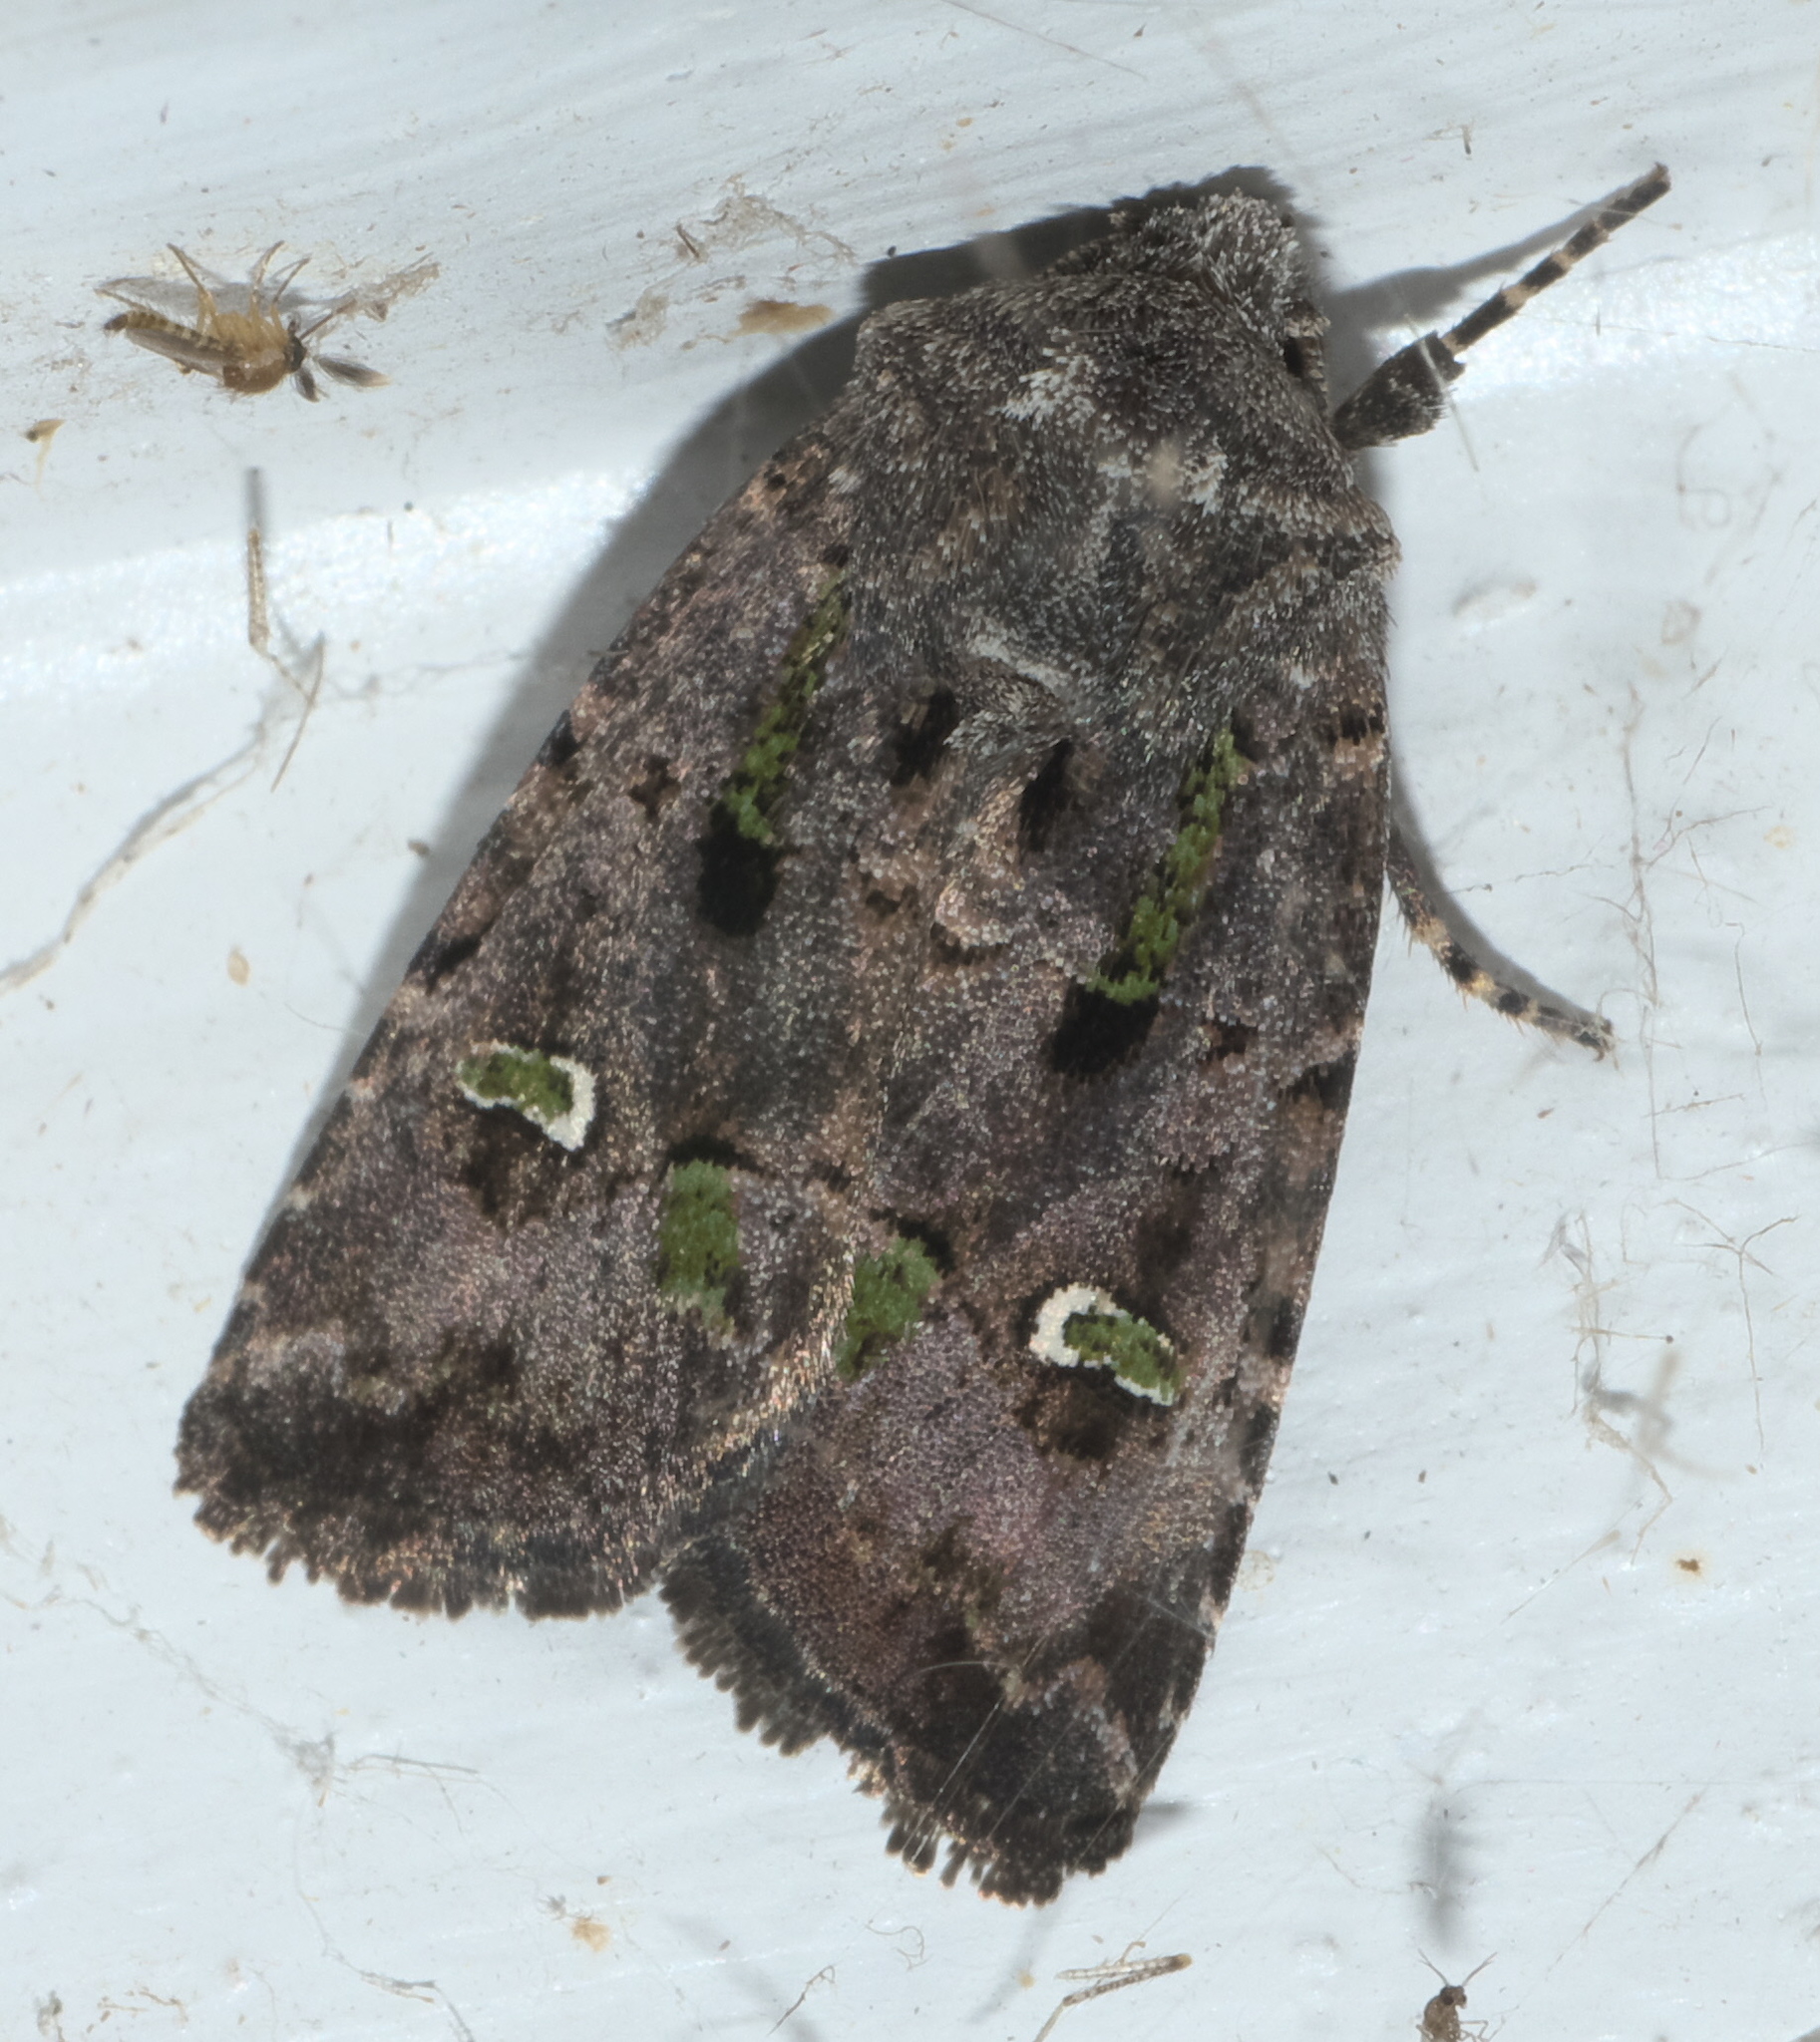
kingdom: Animalia
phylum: Arthropoda
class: Insecta
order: Lepidoptera
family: Noctuidae
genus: Lacinipolia
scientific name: Lacinipolia renigera
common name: Kidney-spotted minor
